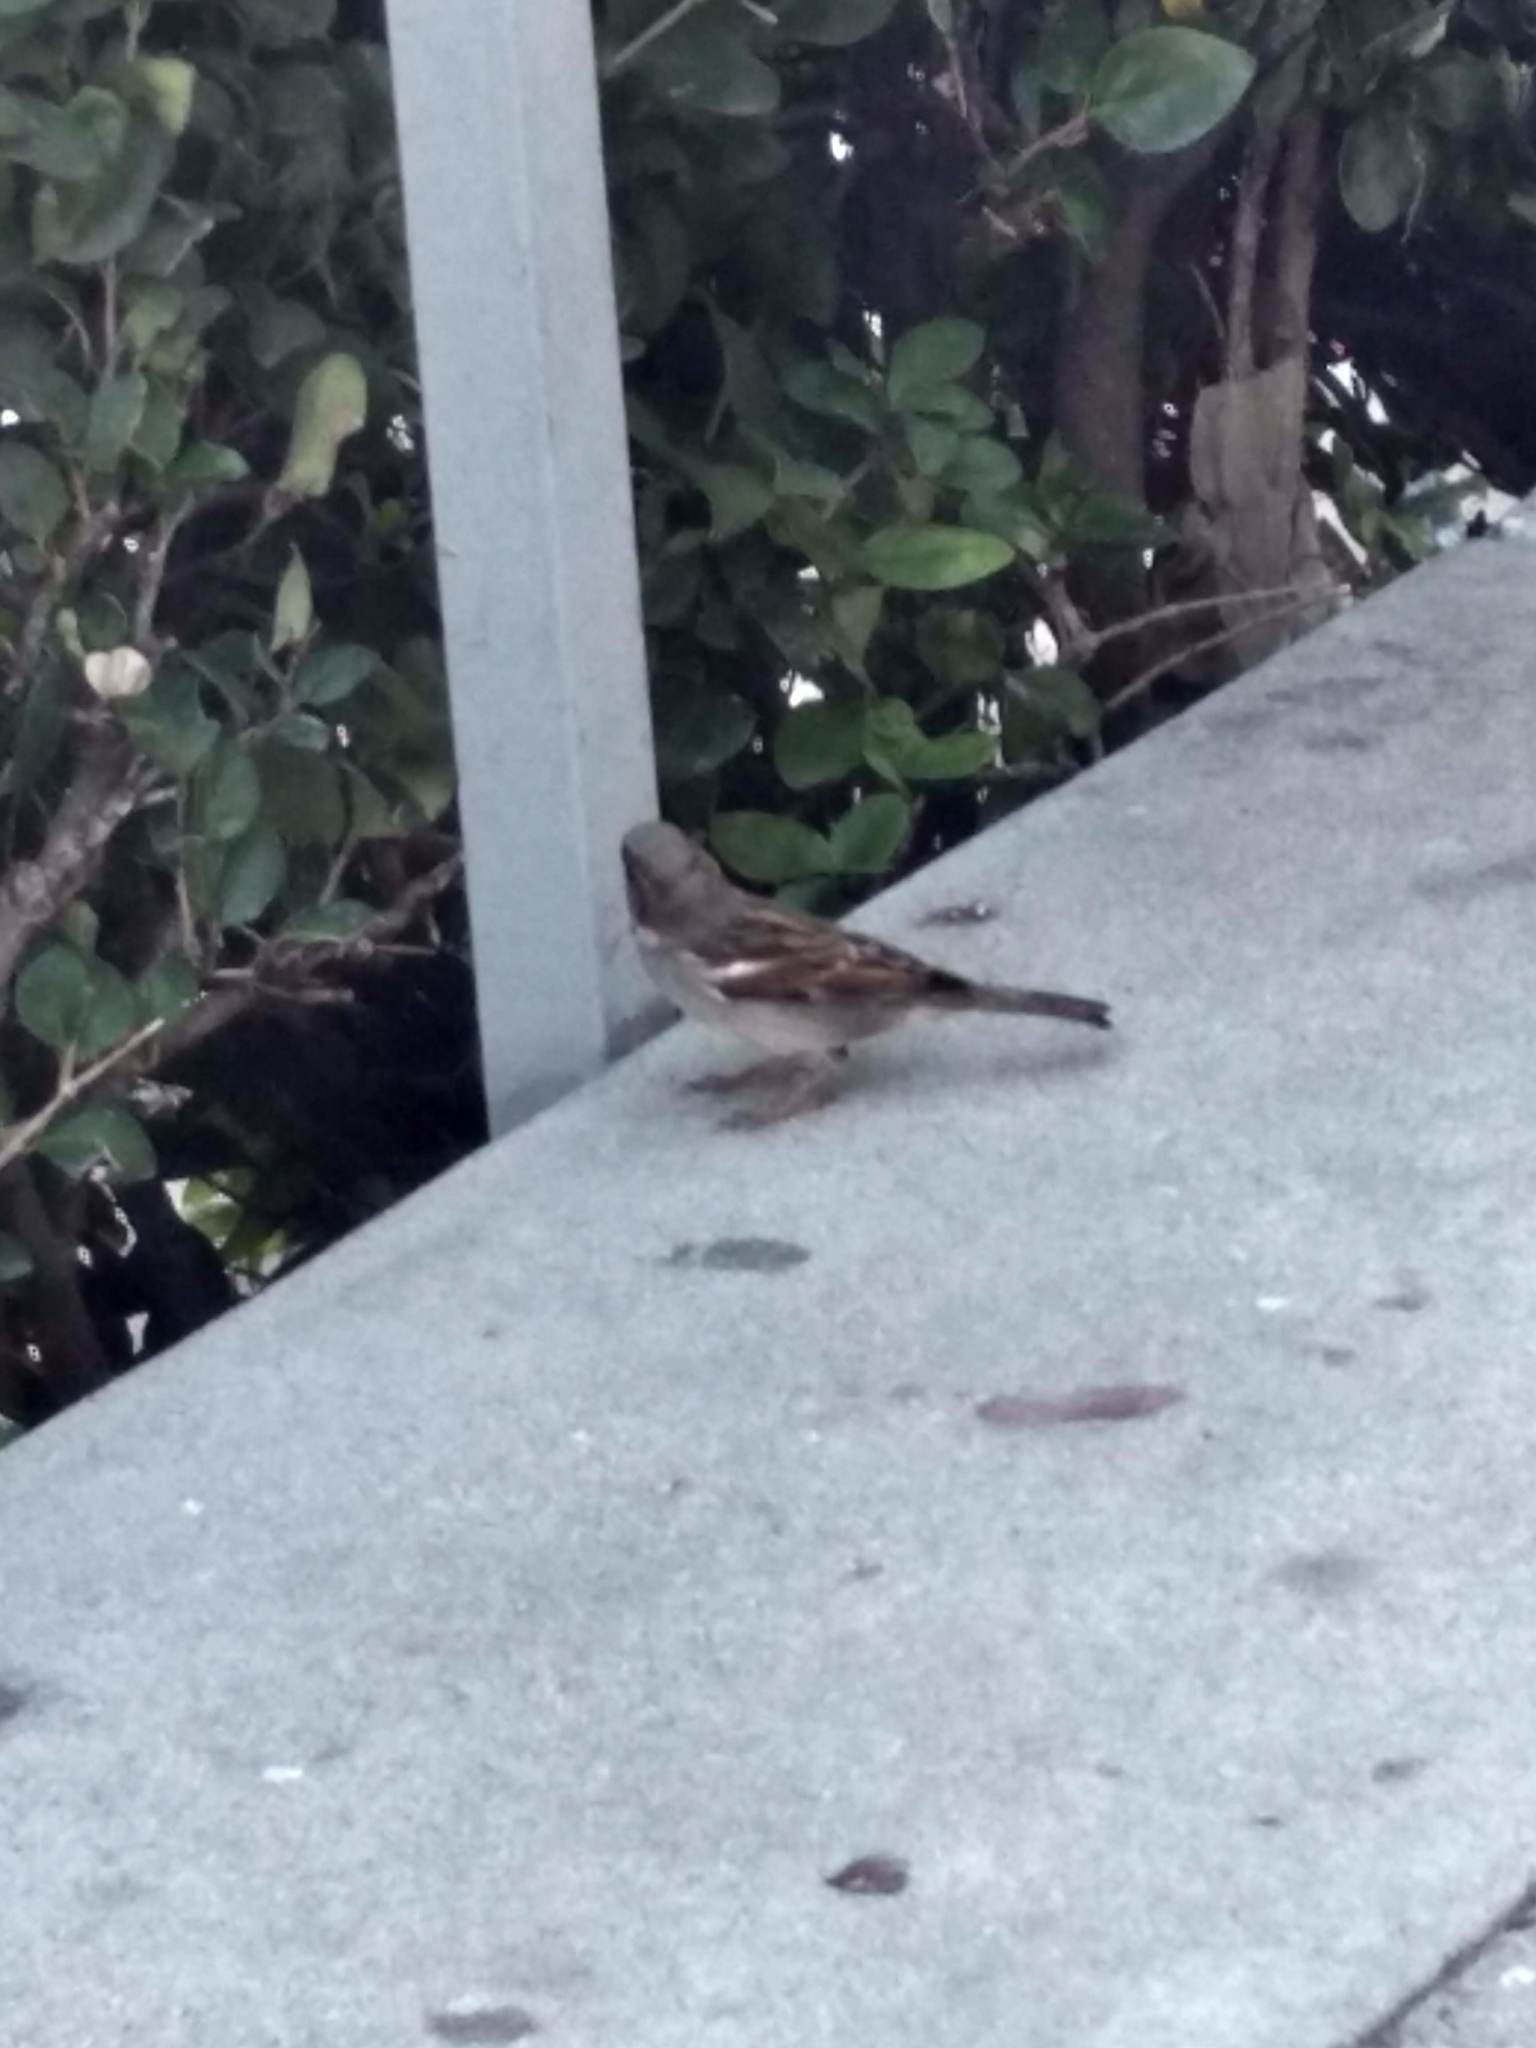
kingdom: Animalia
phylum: Chordata
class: Aves
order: Passeriformes
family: Passeridae
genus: Passer
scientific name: Passer domesticus
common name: House sparrow
